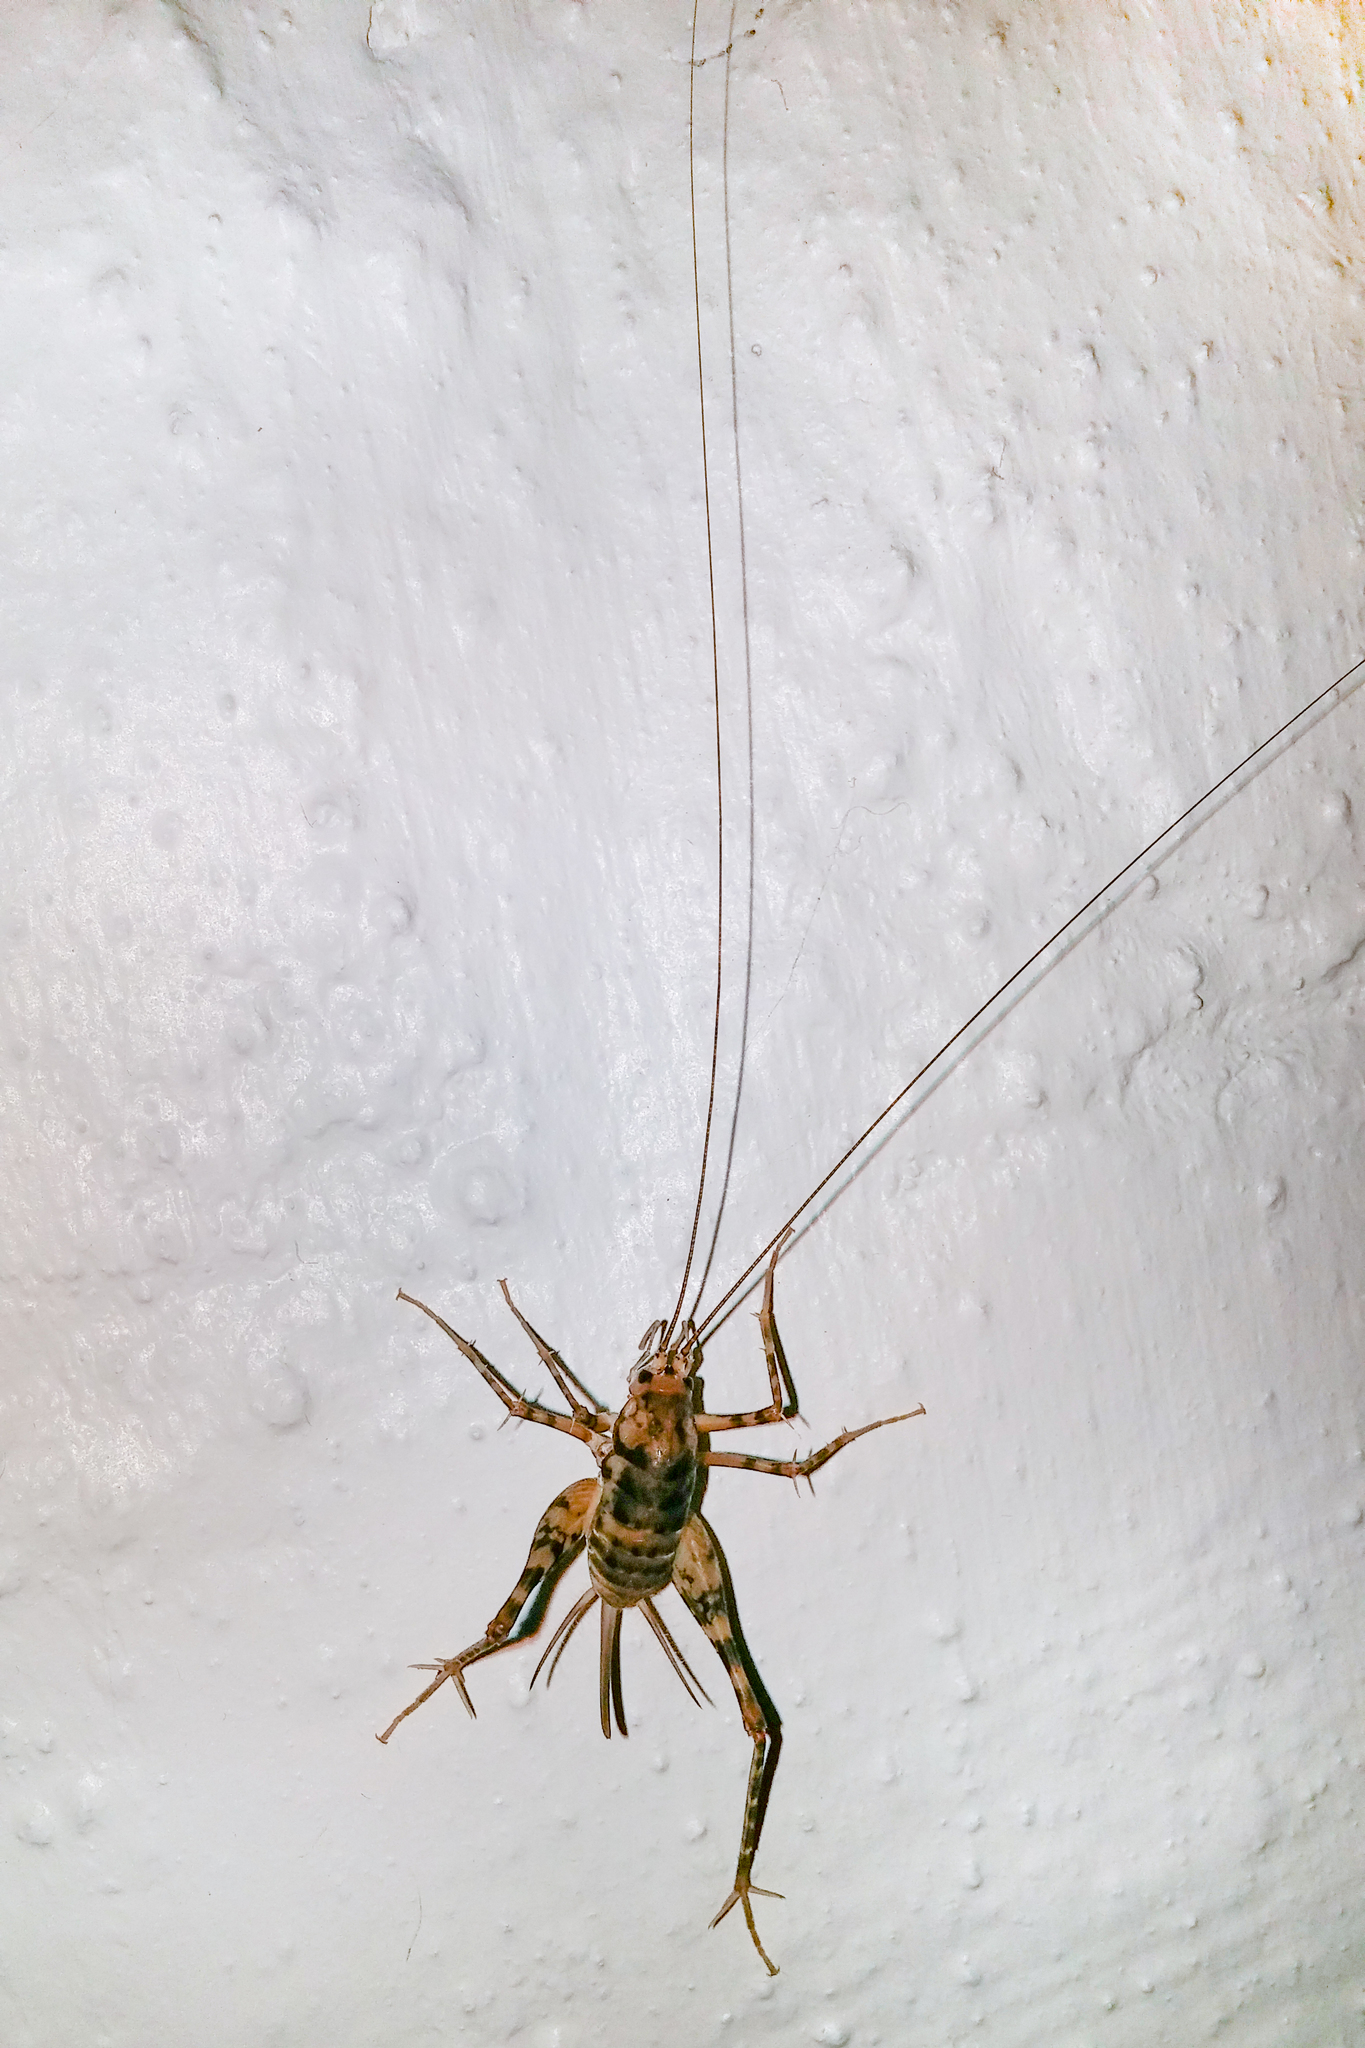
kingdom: Animalia
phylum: Arthropoda
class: Insecta
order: Orthoptera
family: Rhaphidophoridae
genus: Tachycines
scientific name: Tachycines asynamorus
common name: Greenhouse camel cricket
